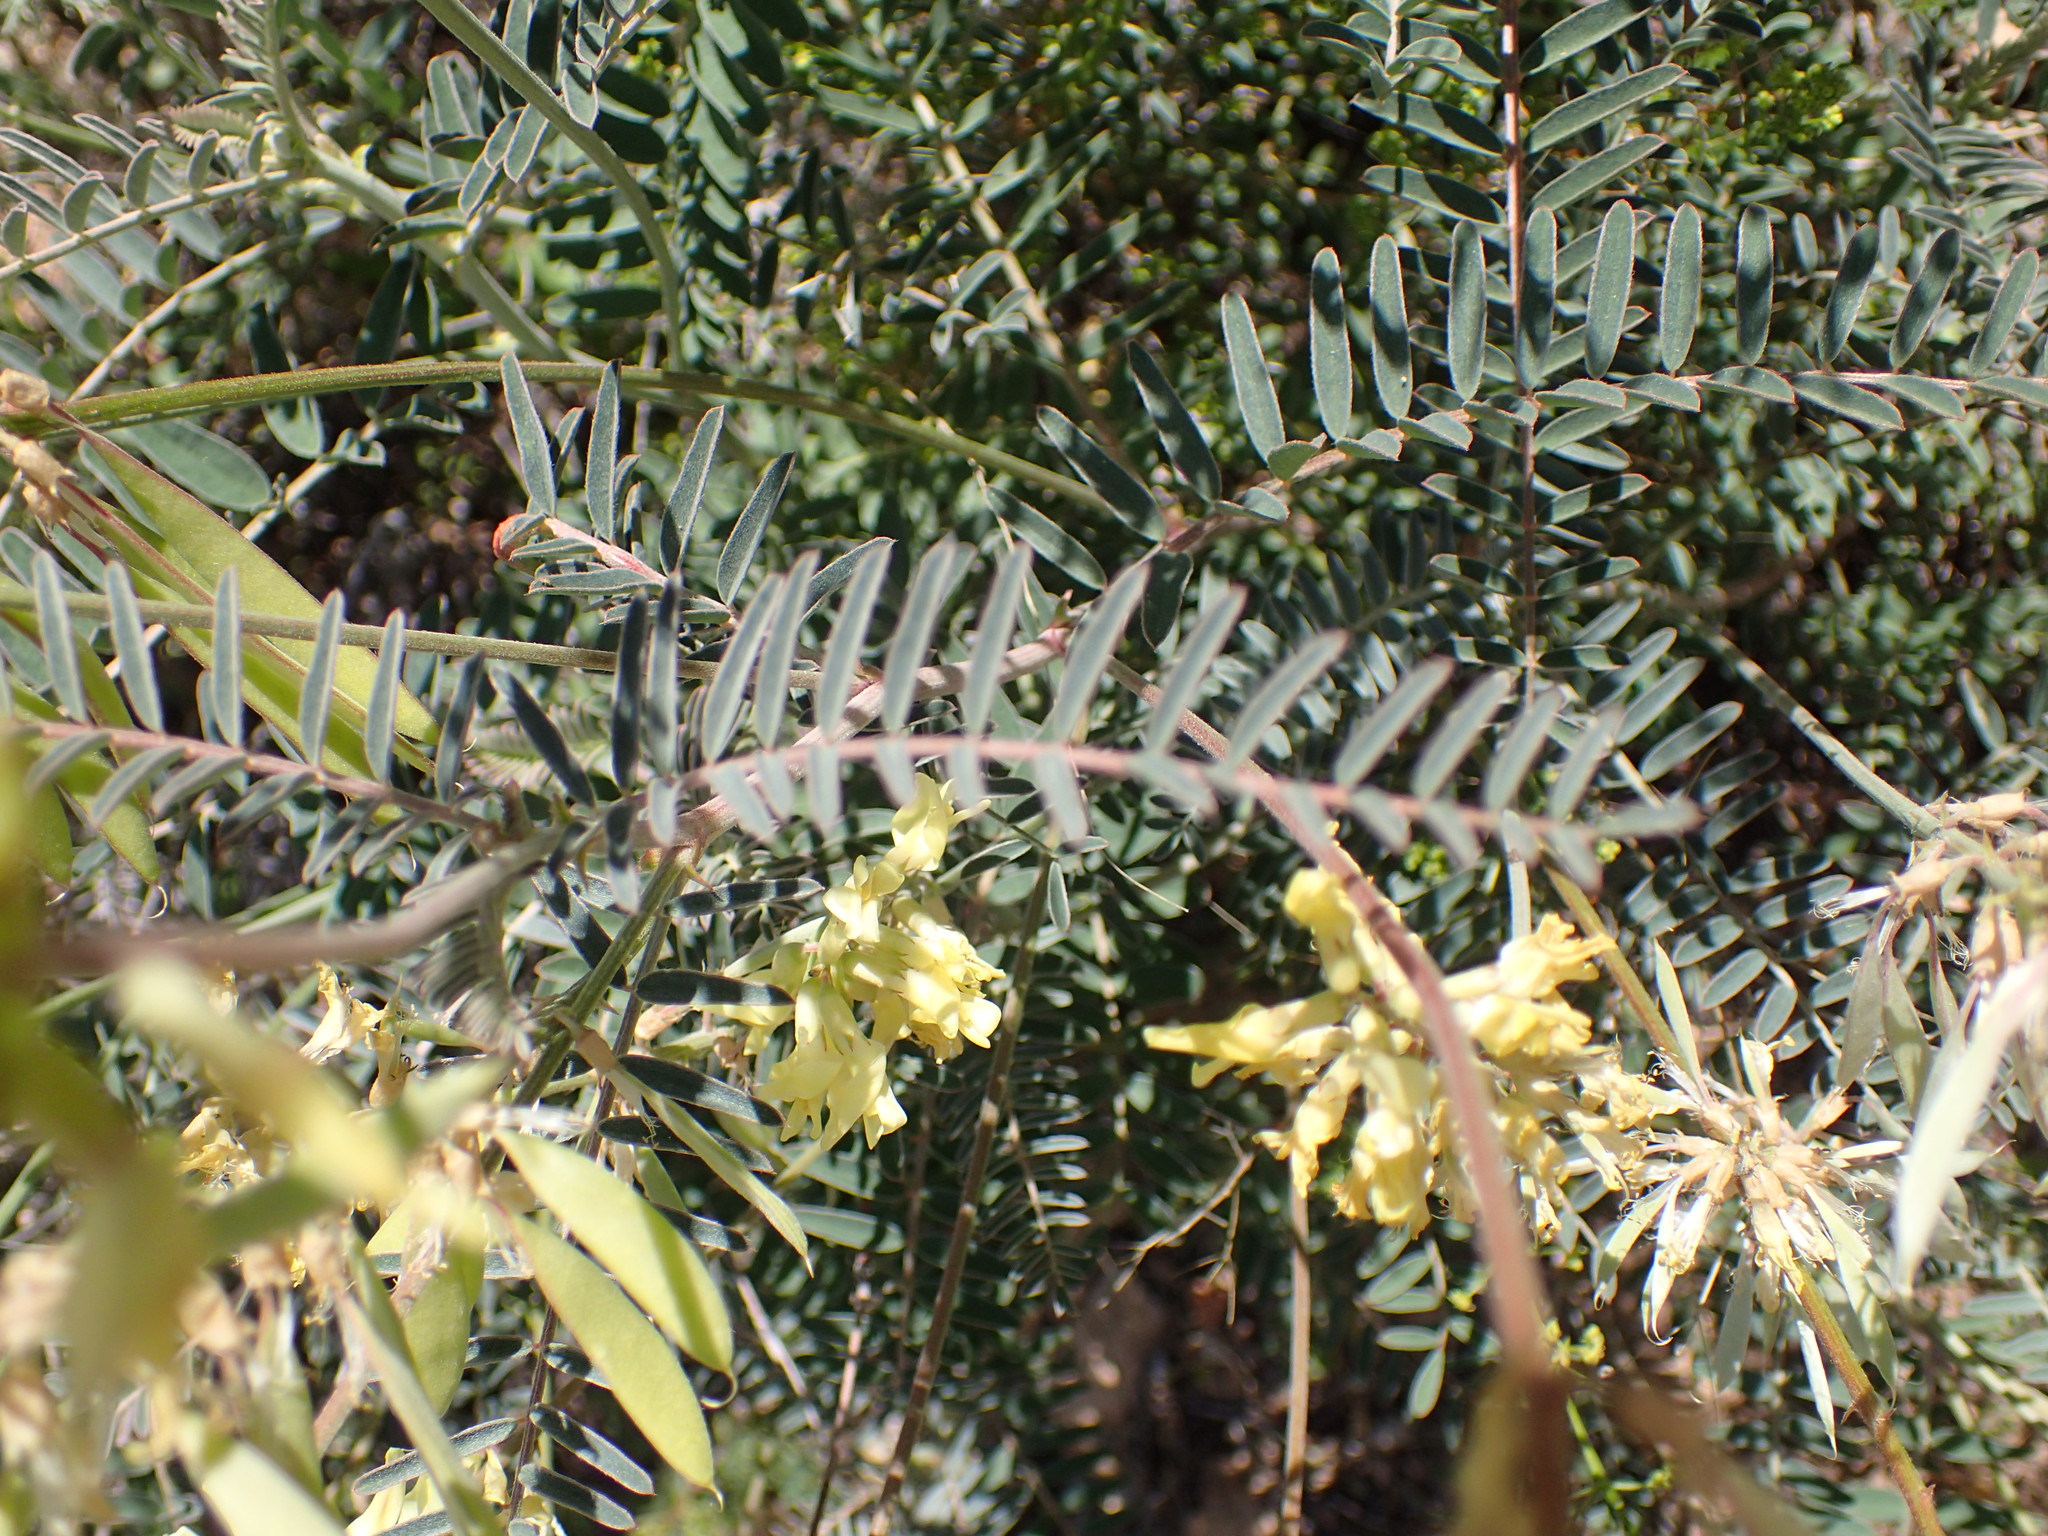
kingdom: Plantae
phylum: Tracheophyta
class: Magnoliopsida
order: Fabales
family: Fabaceae
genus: Astragalus
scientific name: Astragalus trichopodus
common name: Santa barbara milk-vetch
